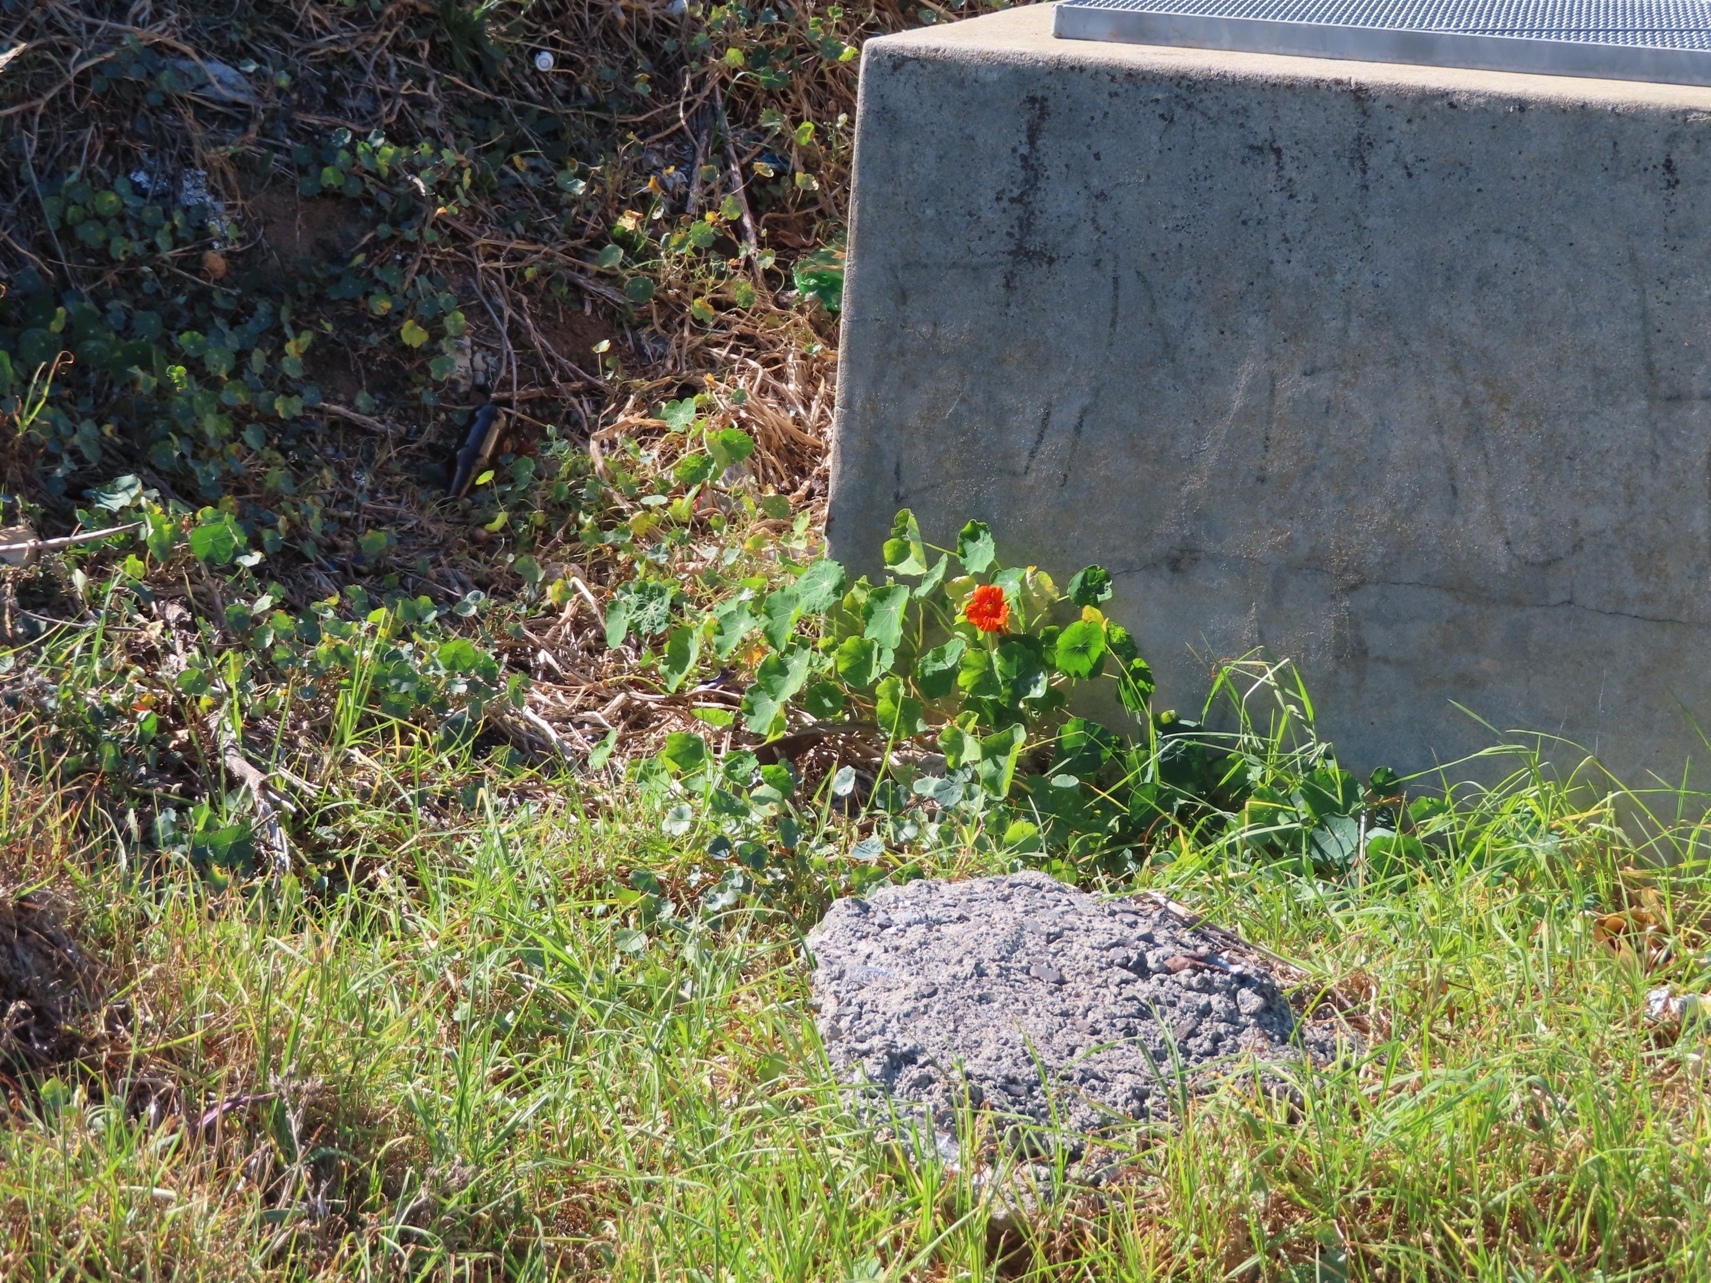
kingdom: Plantae
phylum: Tracheophyta
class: Magnoliopsida
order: Brassicales
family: Tropaeolaceae
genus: Tropaeolum
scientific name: Tropaeolum majus
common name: Nasturtium
